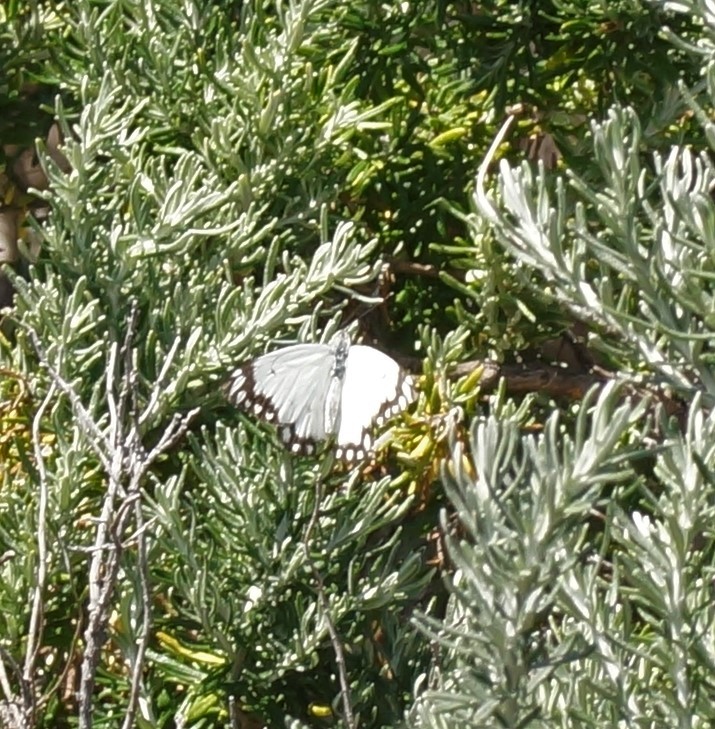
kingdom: Animalia
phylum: Arthropoda
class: Insecta
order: Lepidoptera
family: Pieridae
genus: Belenois
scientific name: Belenois java
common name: Caper white
